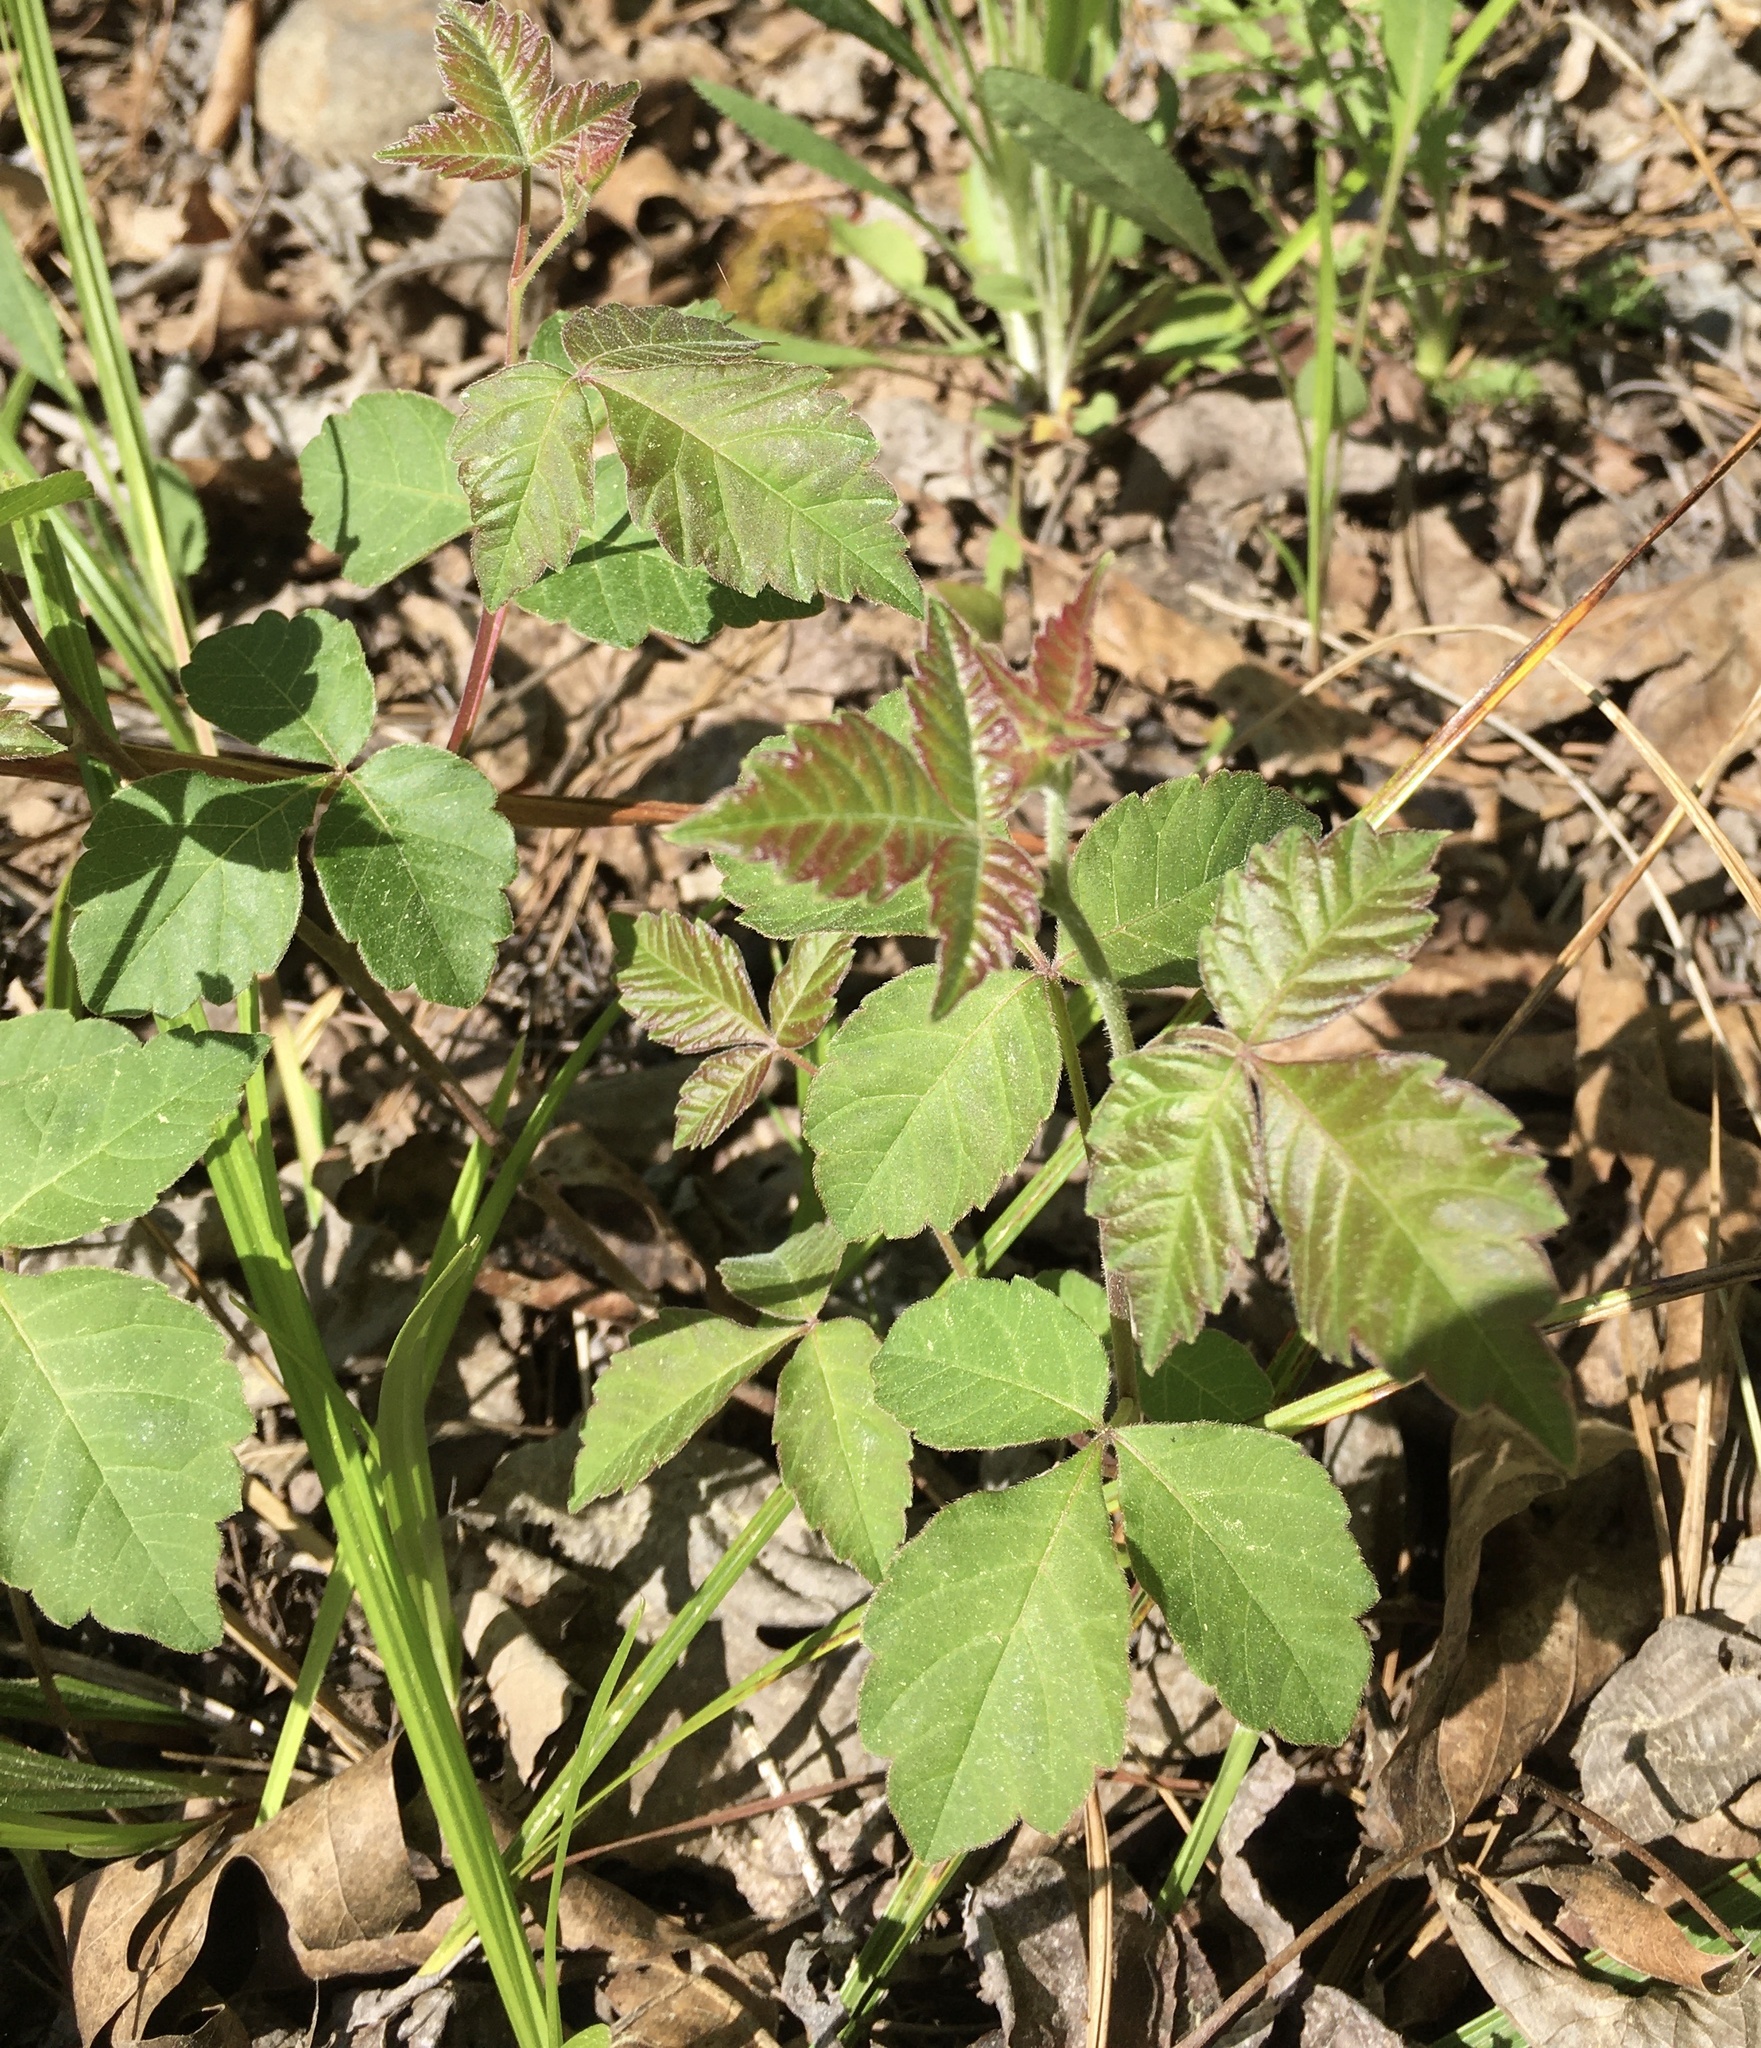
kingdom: Plantae
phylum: Tracheophyta
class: Magnoliopsida
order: Sapindales
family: Anacardiaceae
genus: Rhus
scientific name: Rhus aromatica
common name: Aromatic sumac
